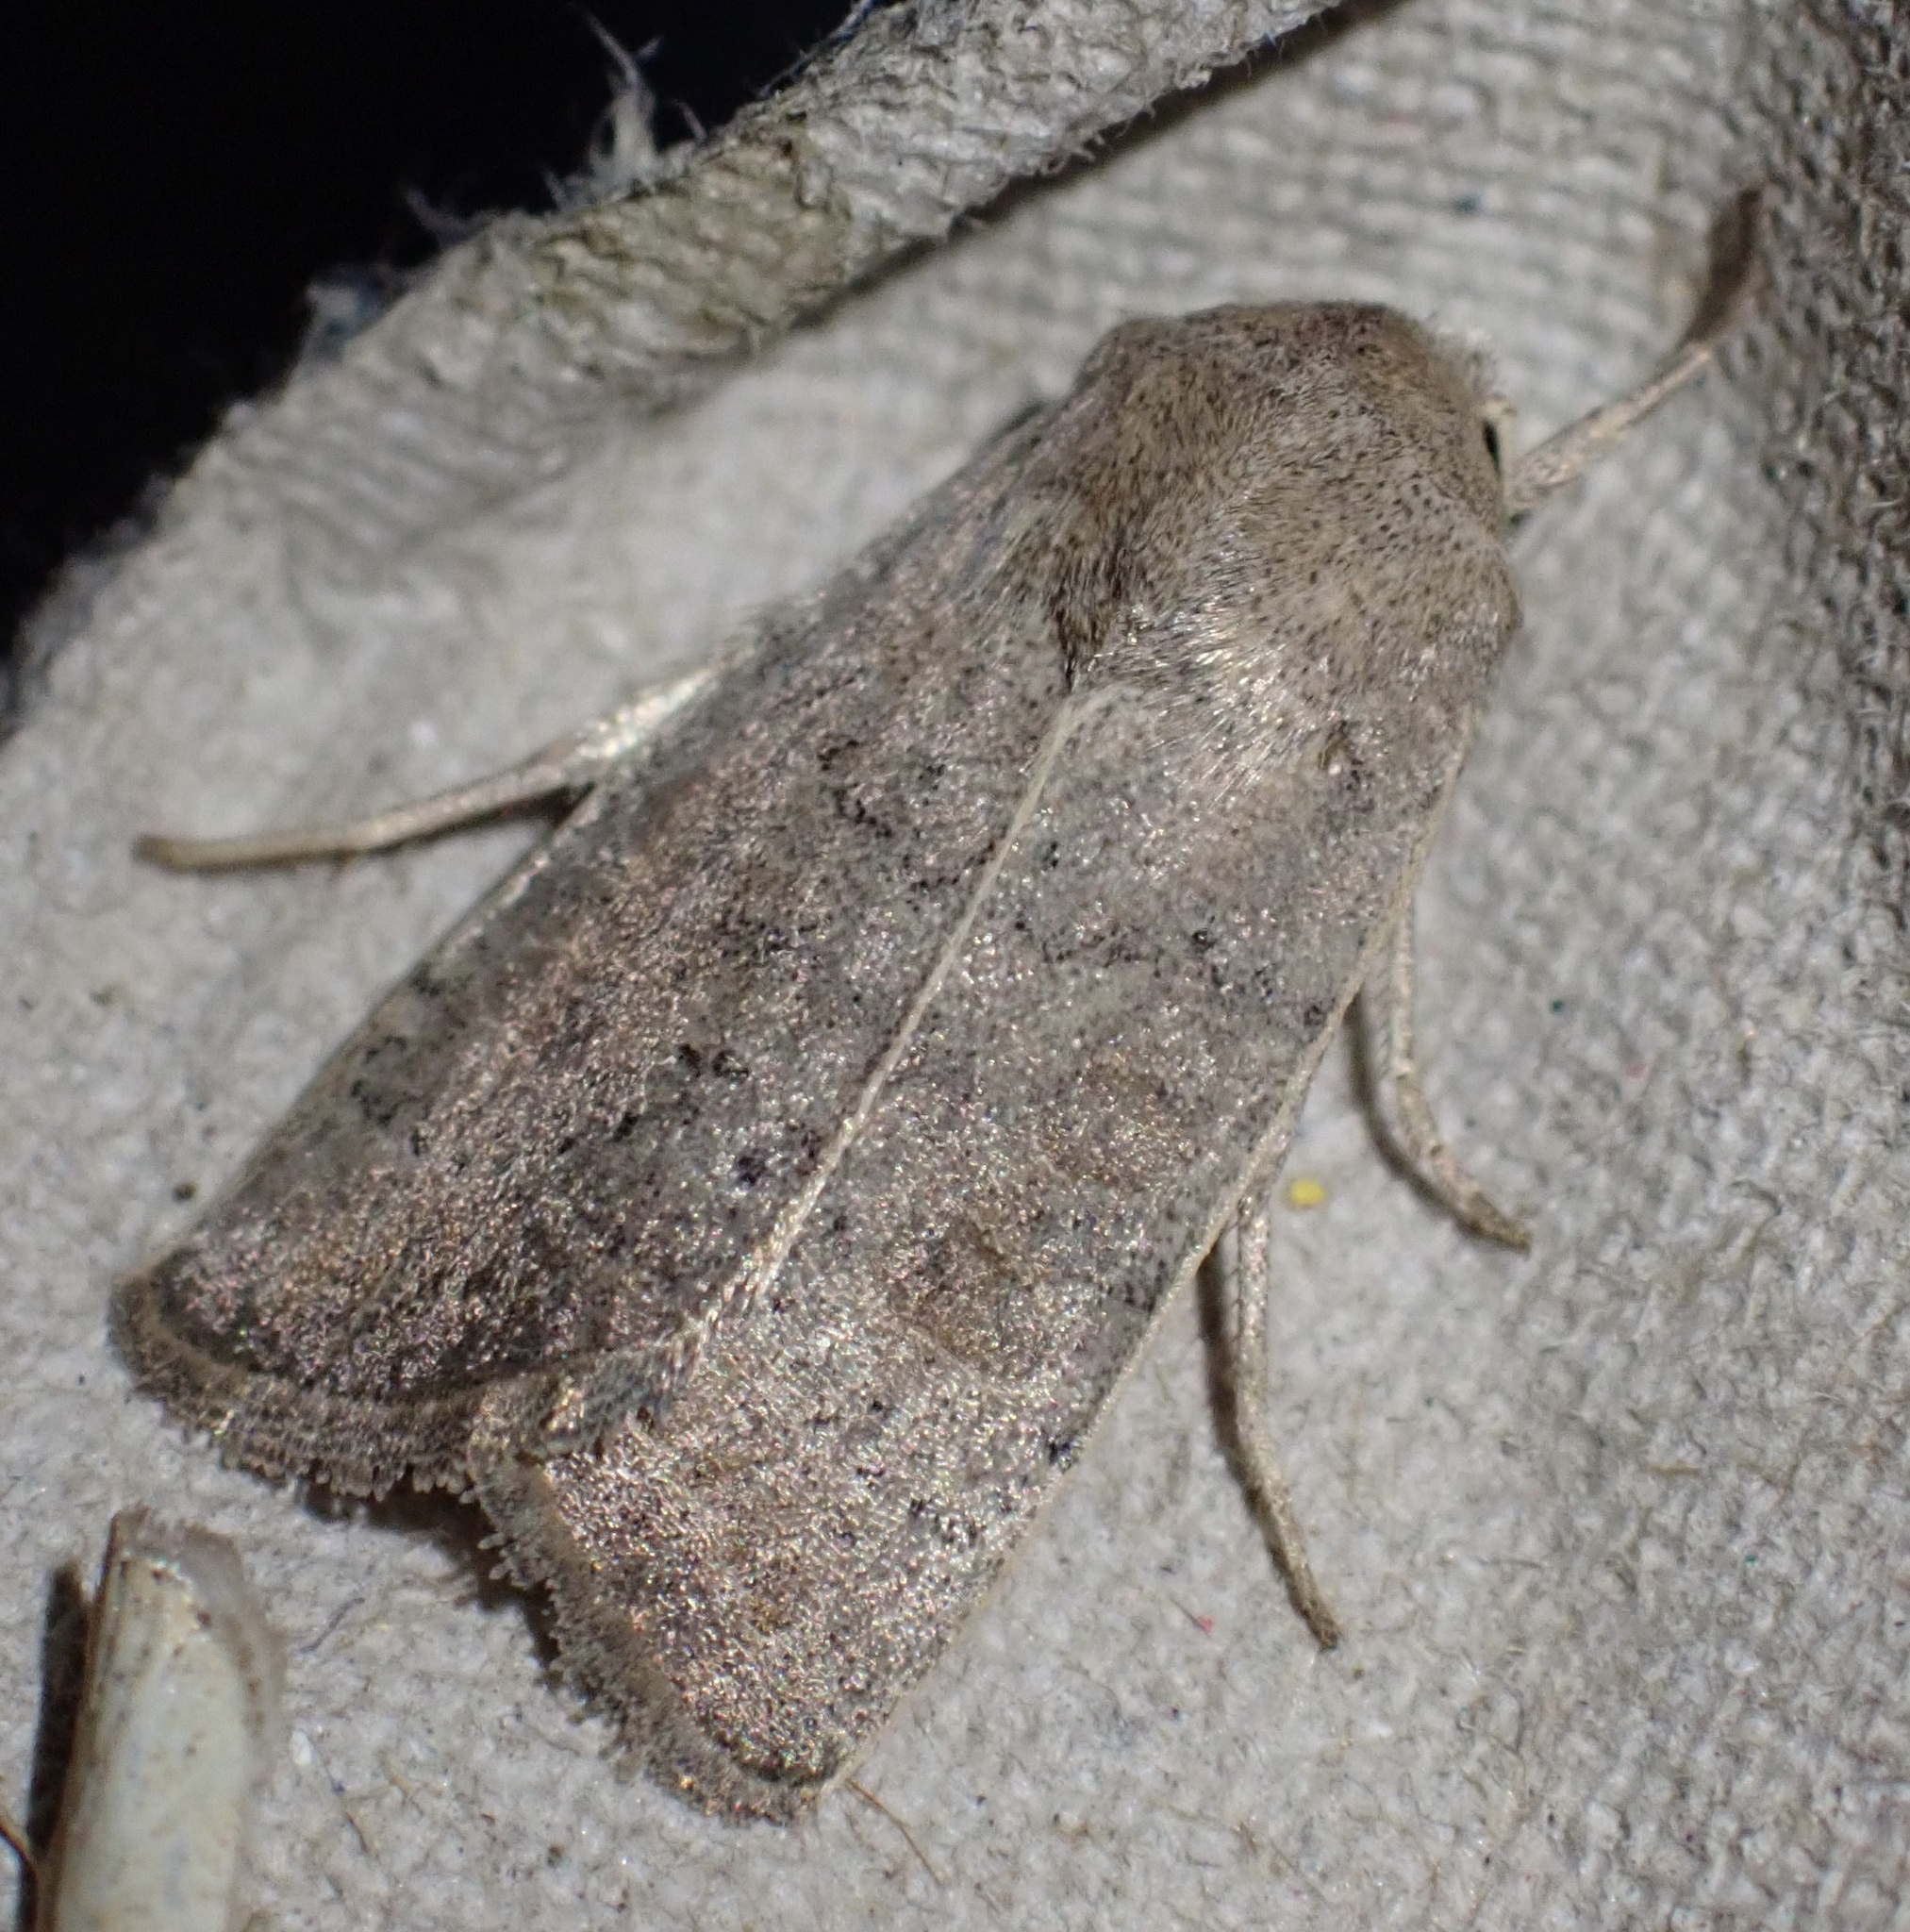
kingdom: Animalia
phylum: Arthropoda
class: Insecta
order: Lepidoptera
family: Noctuidae
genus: Hoplodrina
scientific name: Hoplodrina ambigua
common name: Vine's rustic
